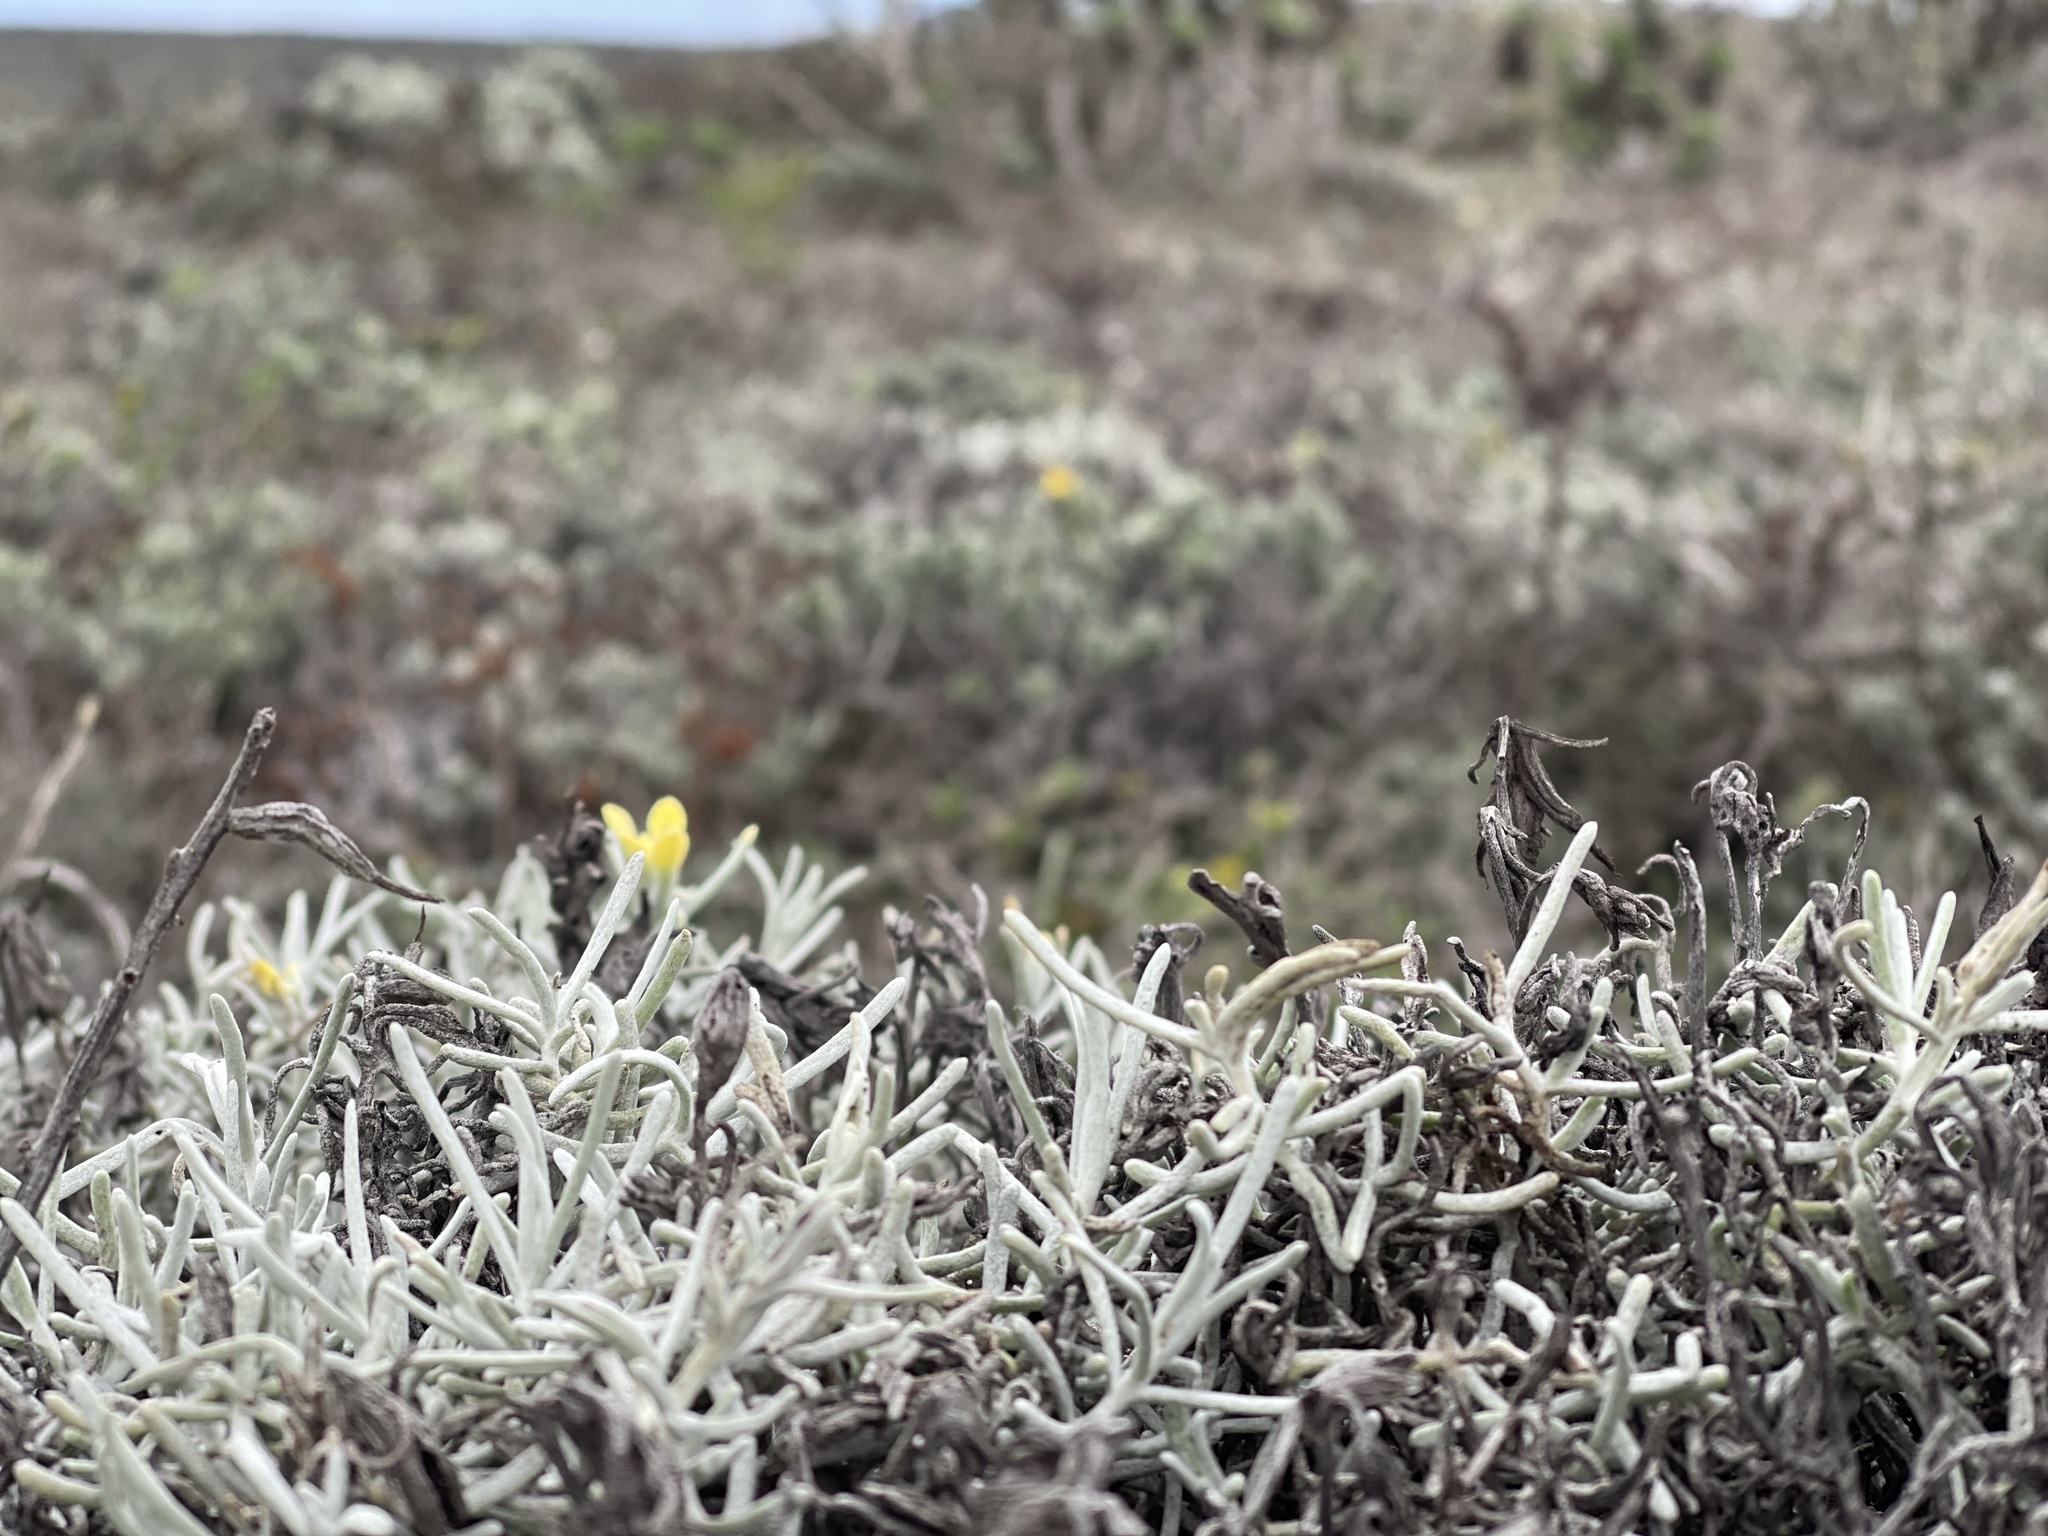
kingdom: Plantae
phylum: Tracheophyta
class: Magnoliopsida
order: Lamiales
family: Orobanchaceae
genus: Castilleja
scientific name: Castilleja hololeuca
